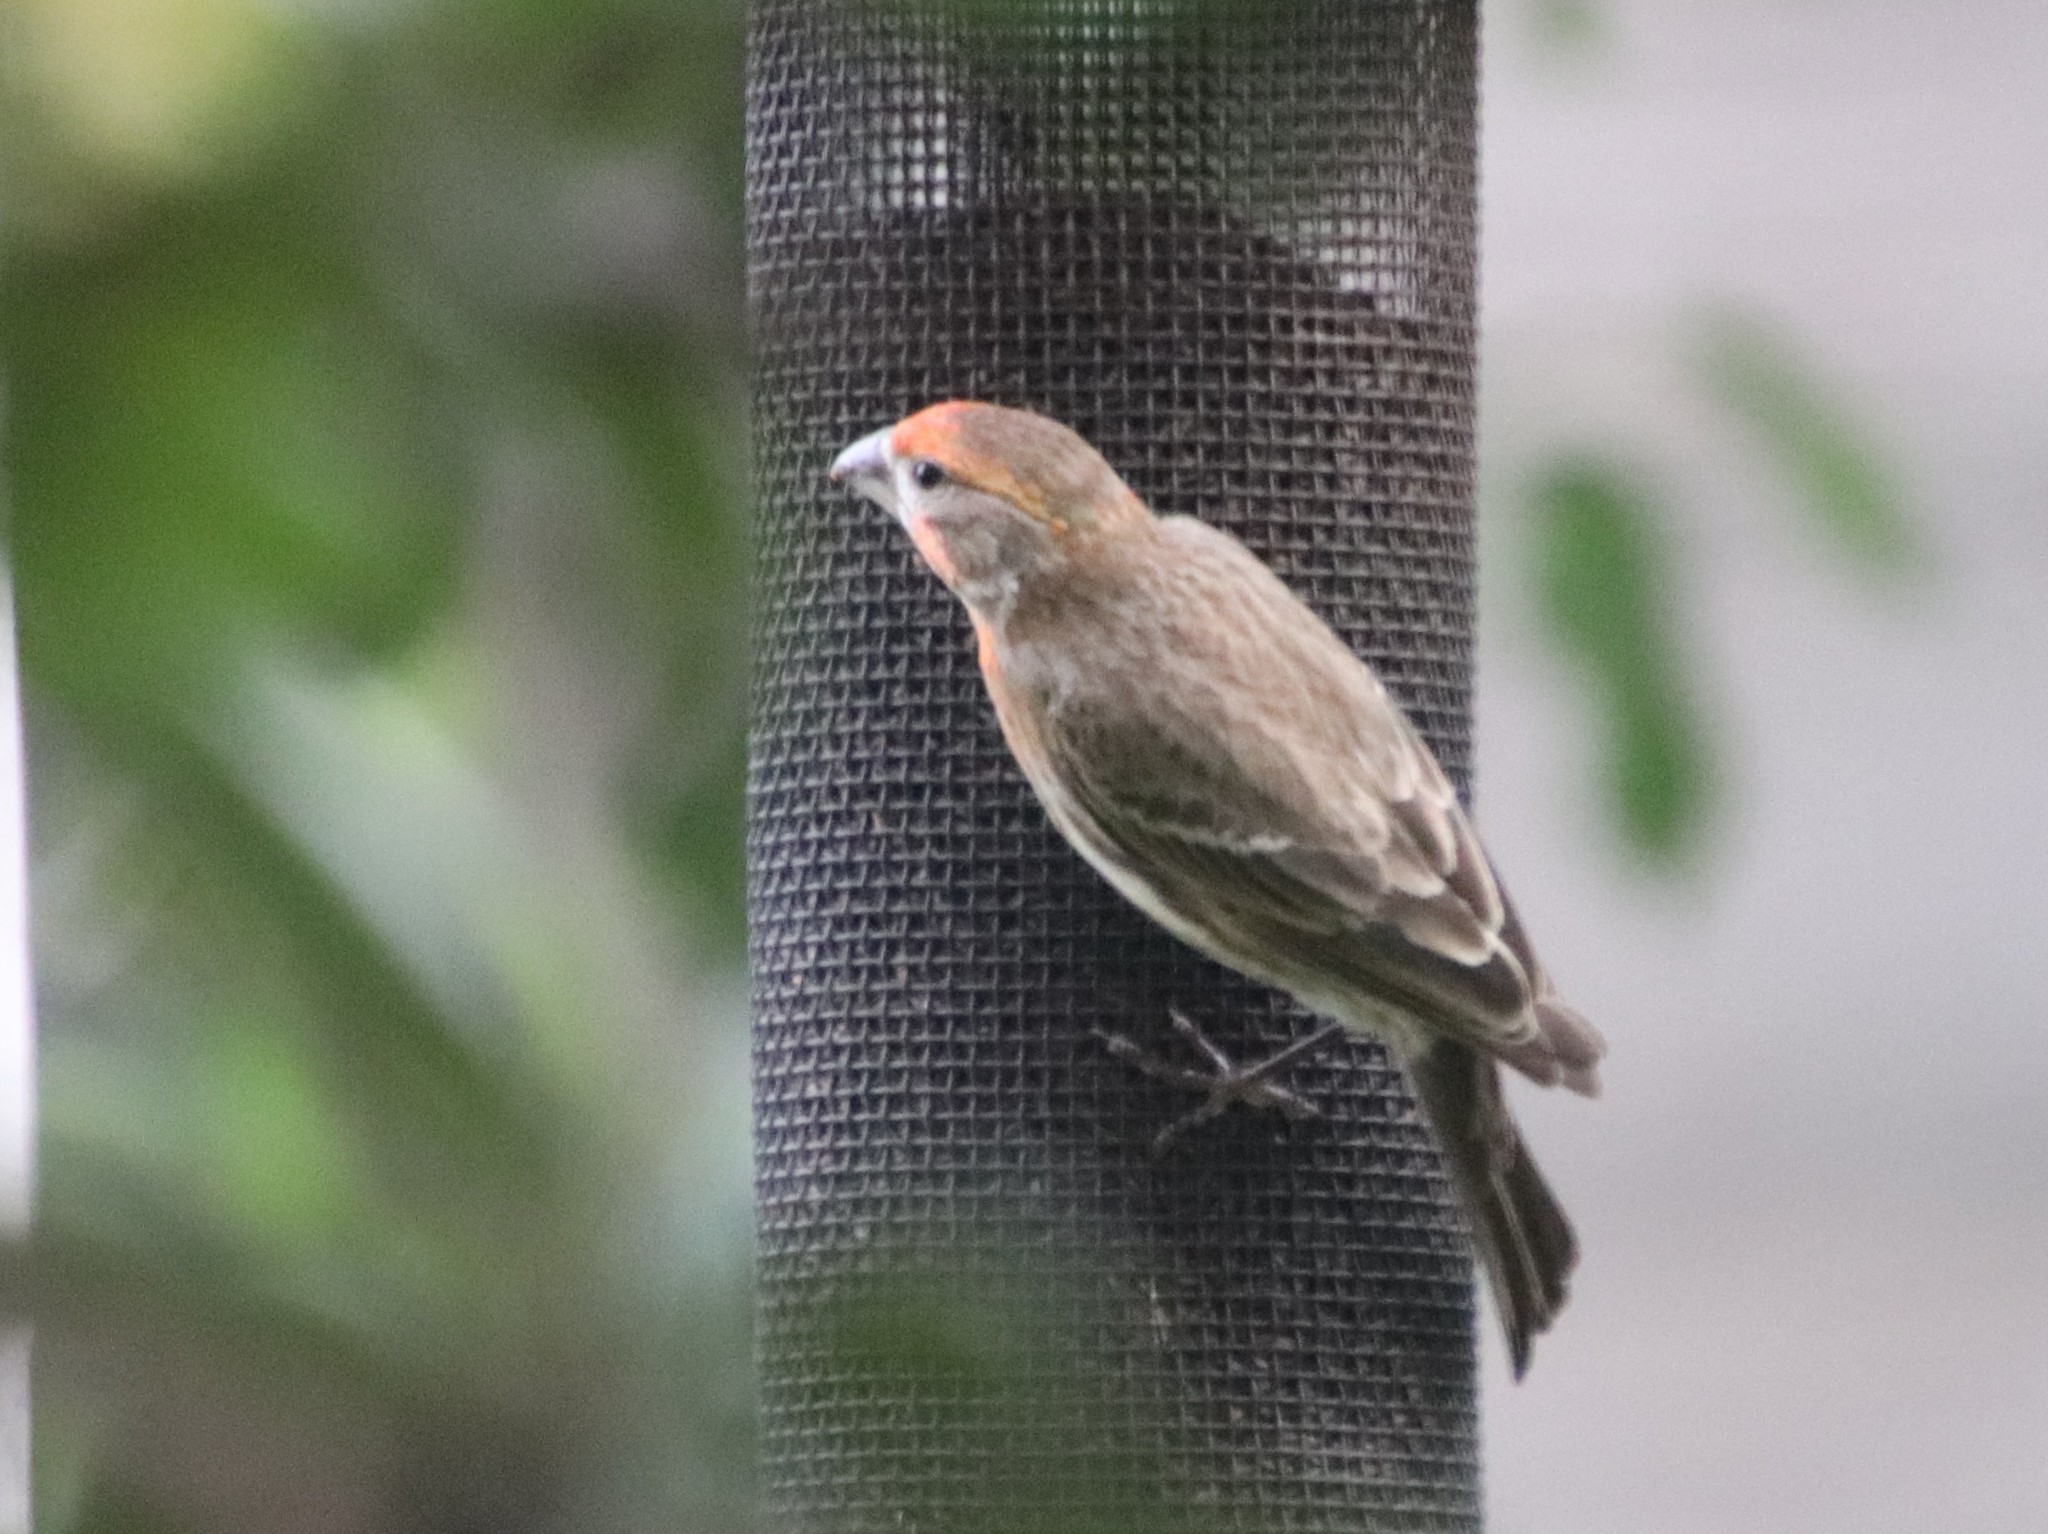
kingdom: Animalia
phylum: Chordata
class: Aves
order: Passeriformes
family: Fringillidae
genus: Haemorhous
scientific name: Haemorhous mexicanus
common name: House finch
